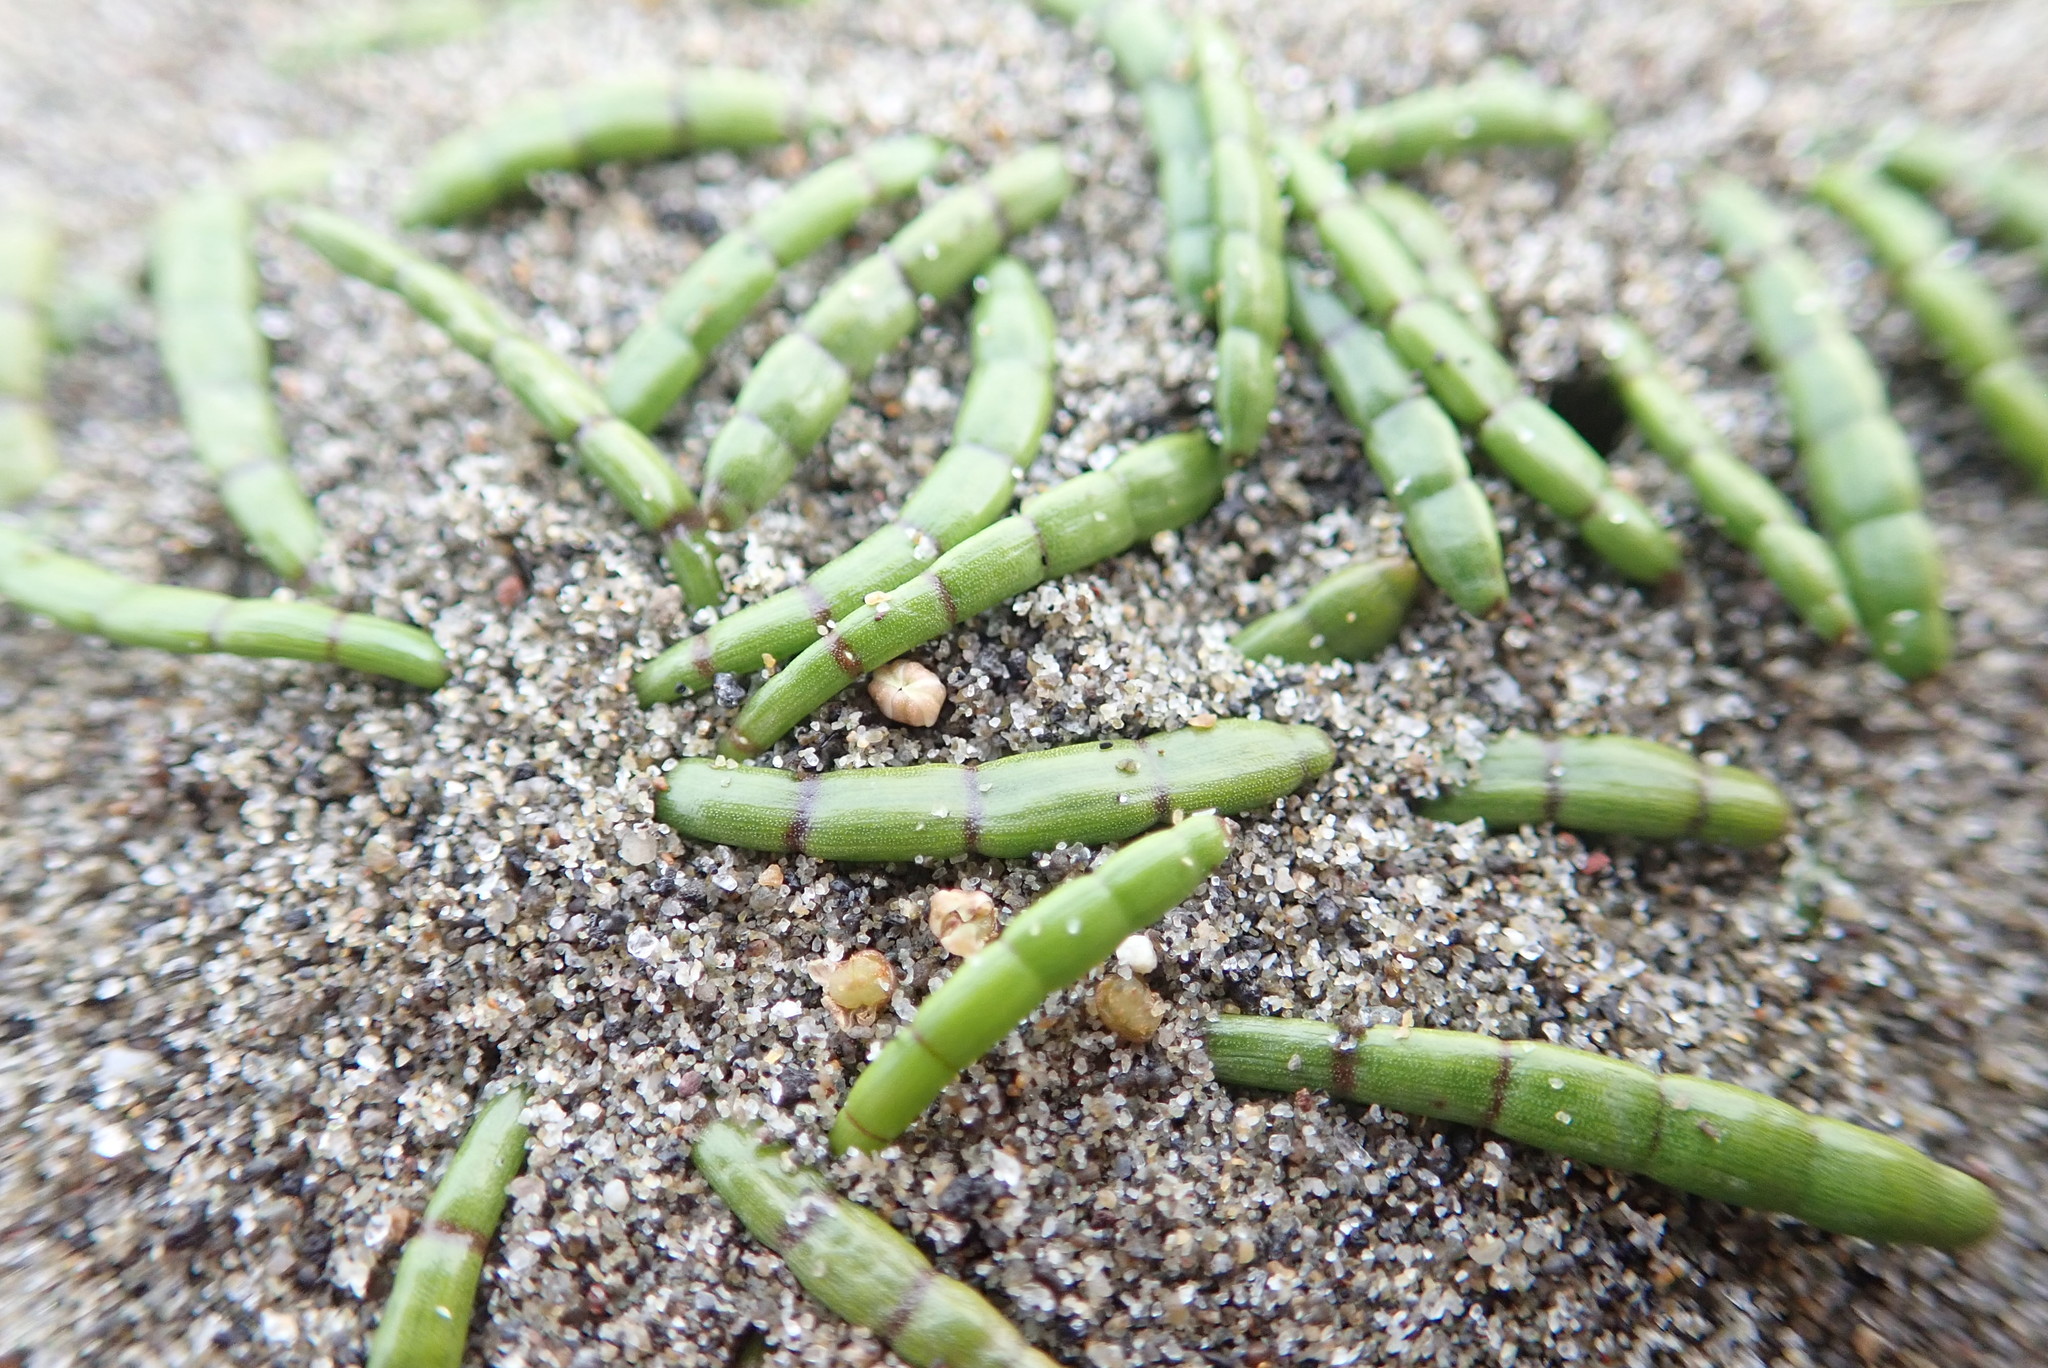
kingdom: Plantae
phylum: Tracheophyta
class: Magnoliopsida
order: Apiales
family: Apiaceae
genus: Lilaeopsis
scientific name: Lilaeopsis novae-zelandiae
